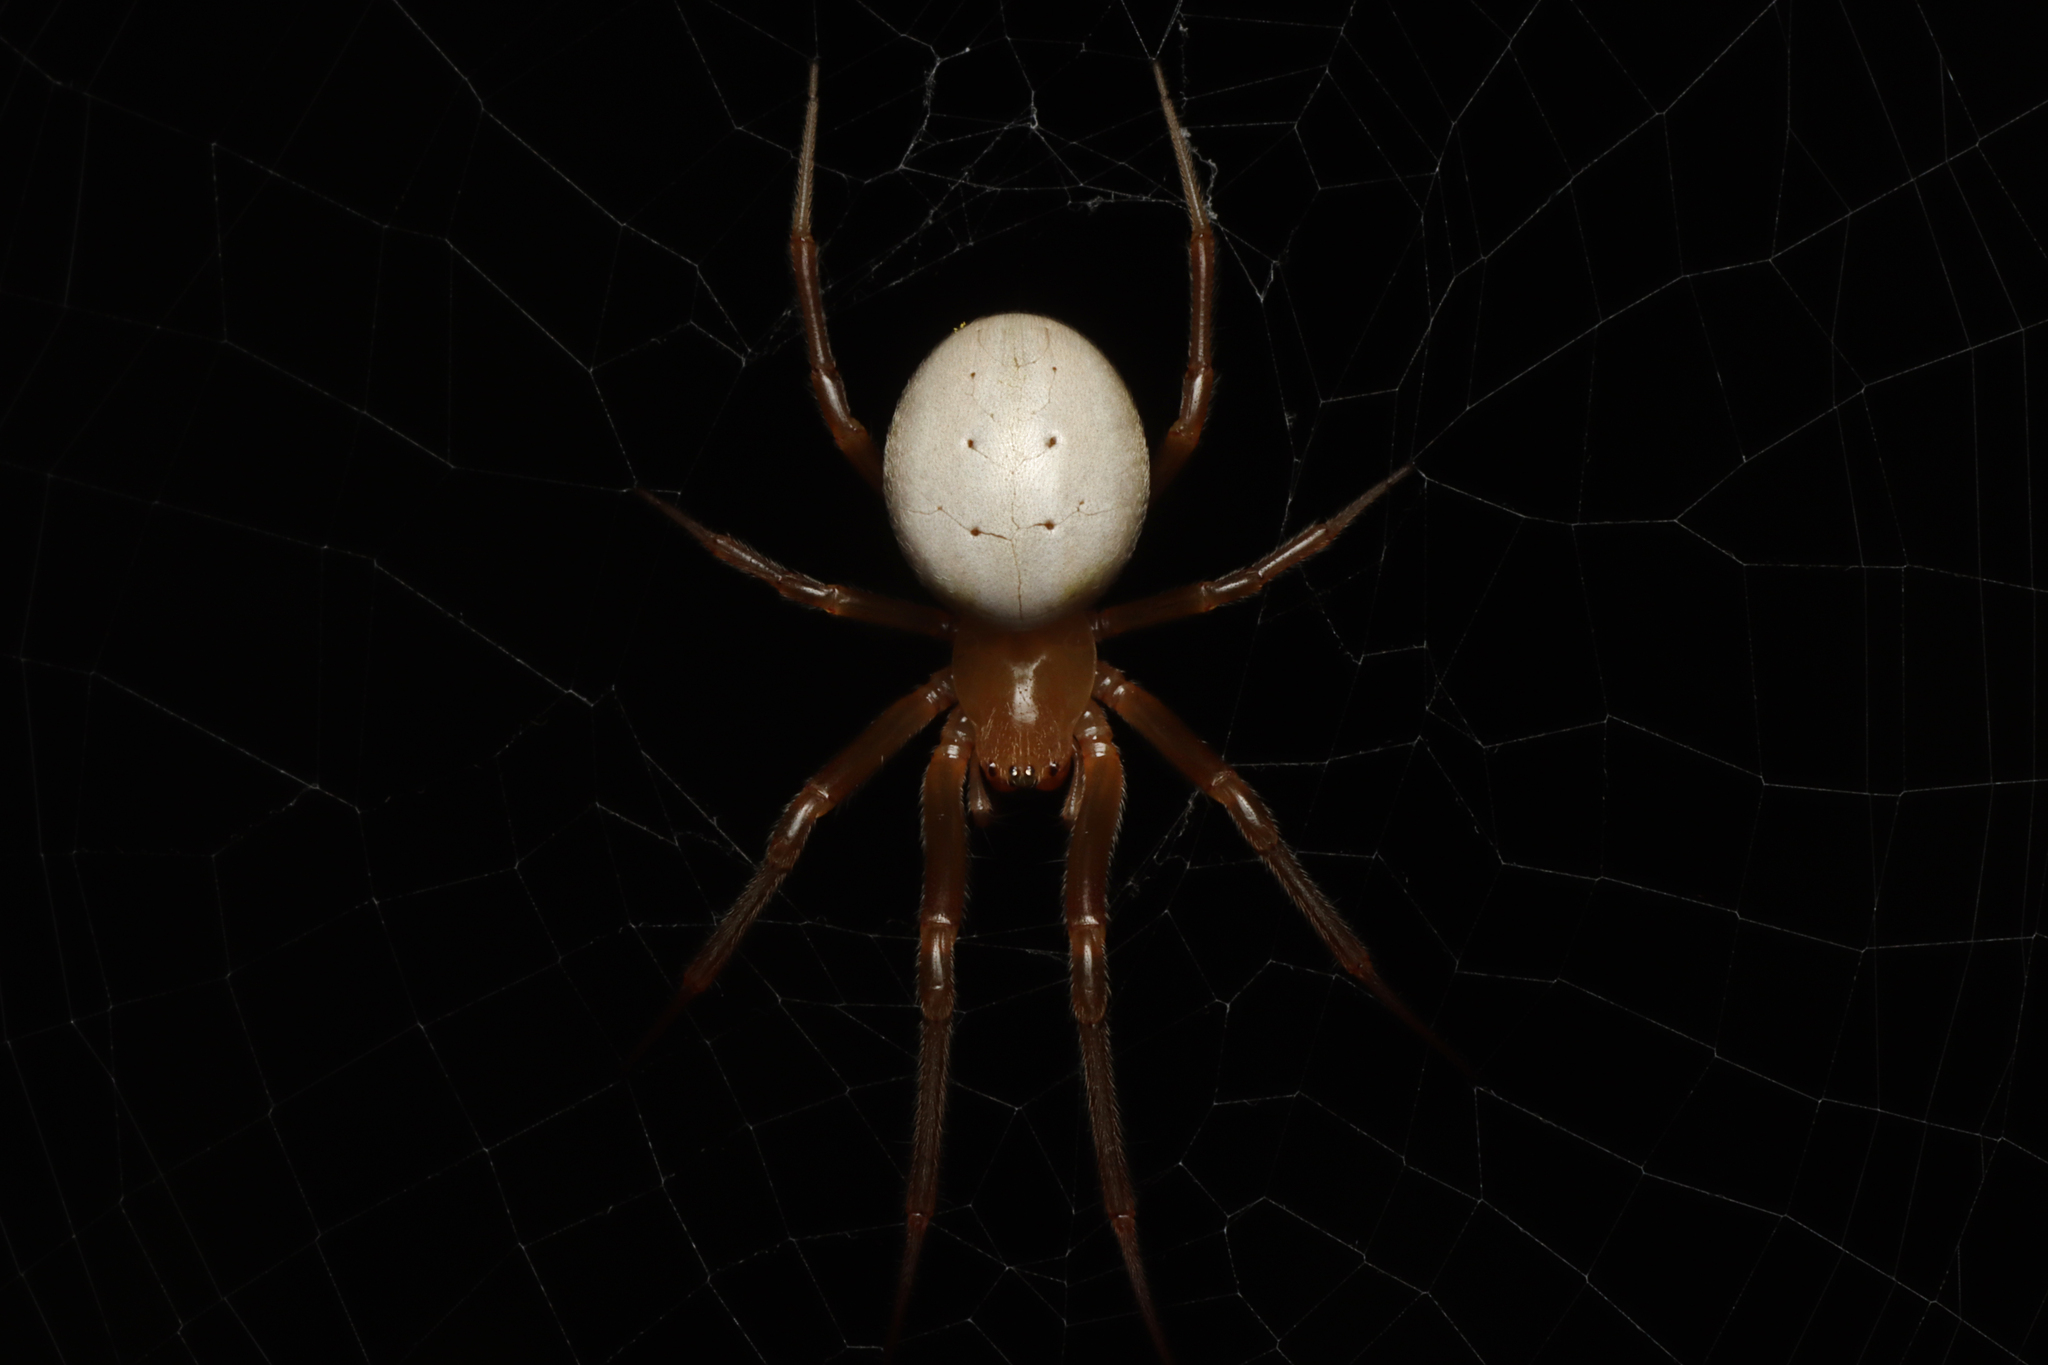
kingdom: Animalia
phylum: Arthropoda
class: Arachnida
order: Araneae
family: Araneidae
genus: Deliochus
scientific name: Deliochus idoneus
